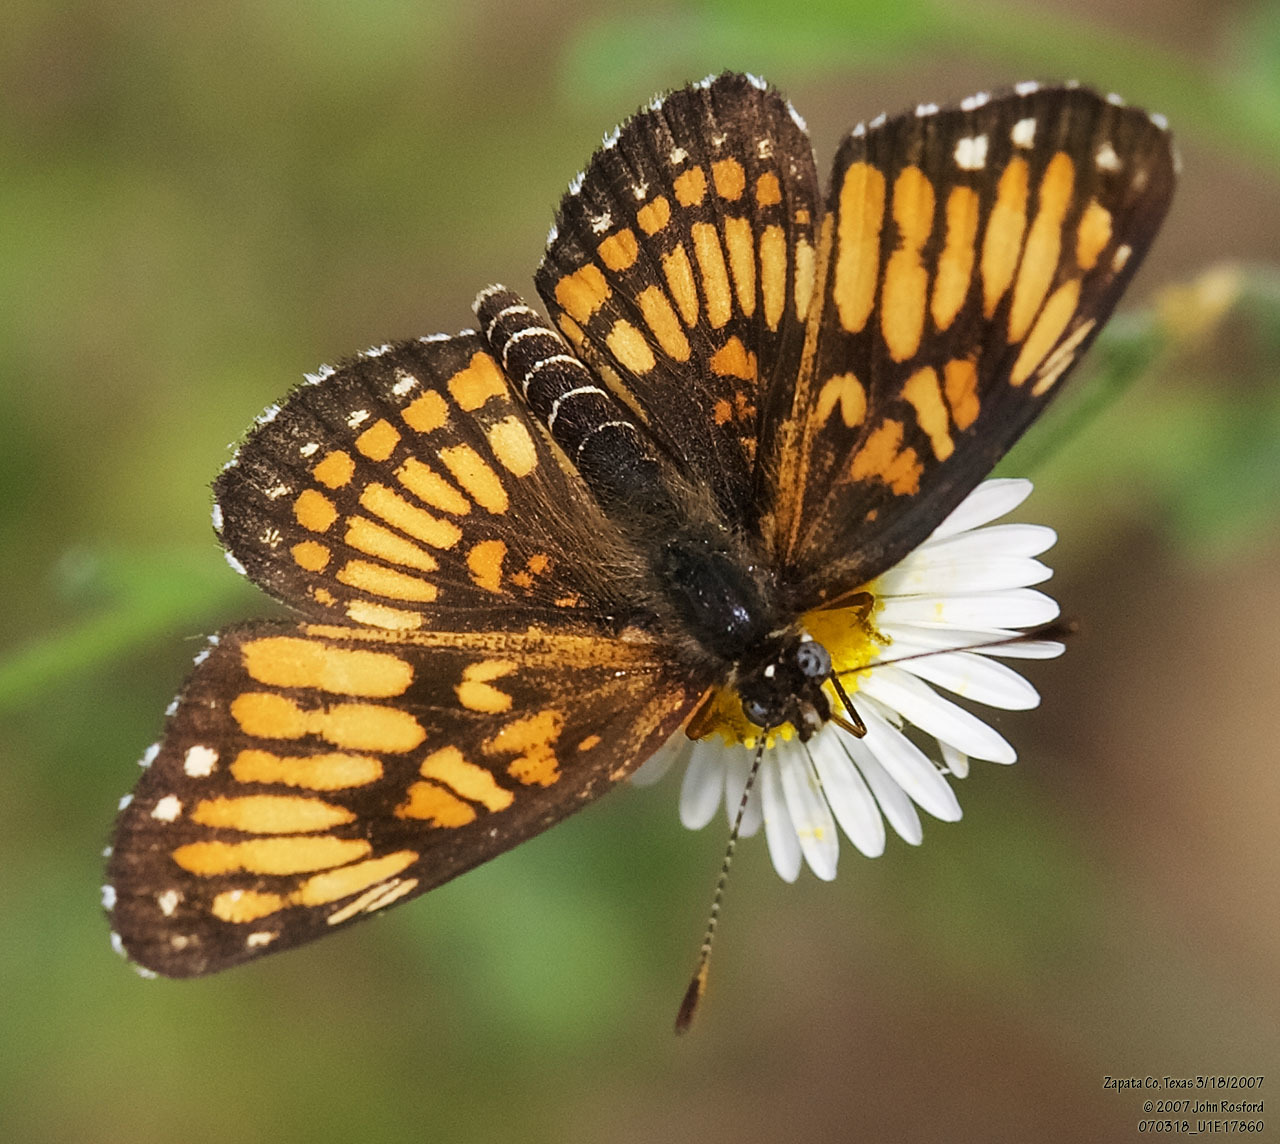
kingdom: Animalia
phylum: Arthropoda
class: Insecta
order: Lepidoptera
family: Nymphalidae
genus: Thessalia
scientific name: Thessalia theona
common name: Nymphalid moth
